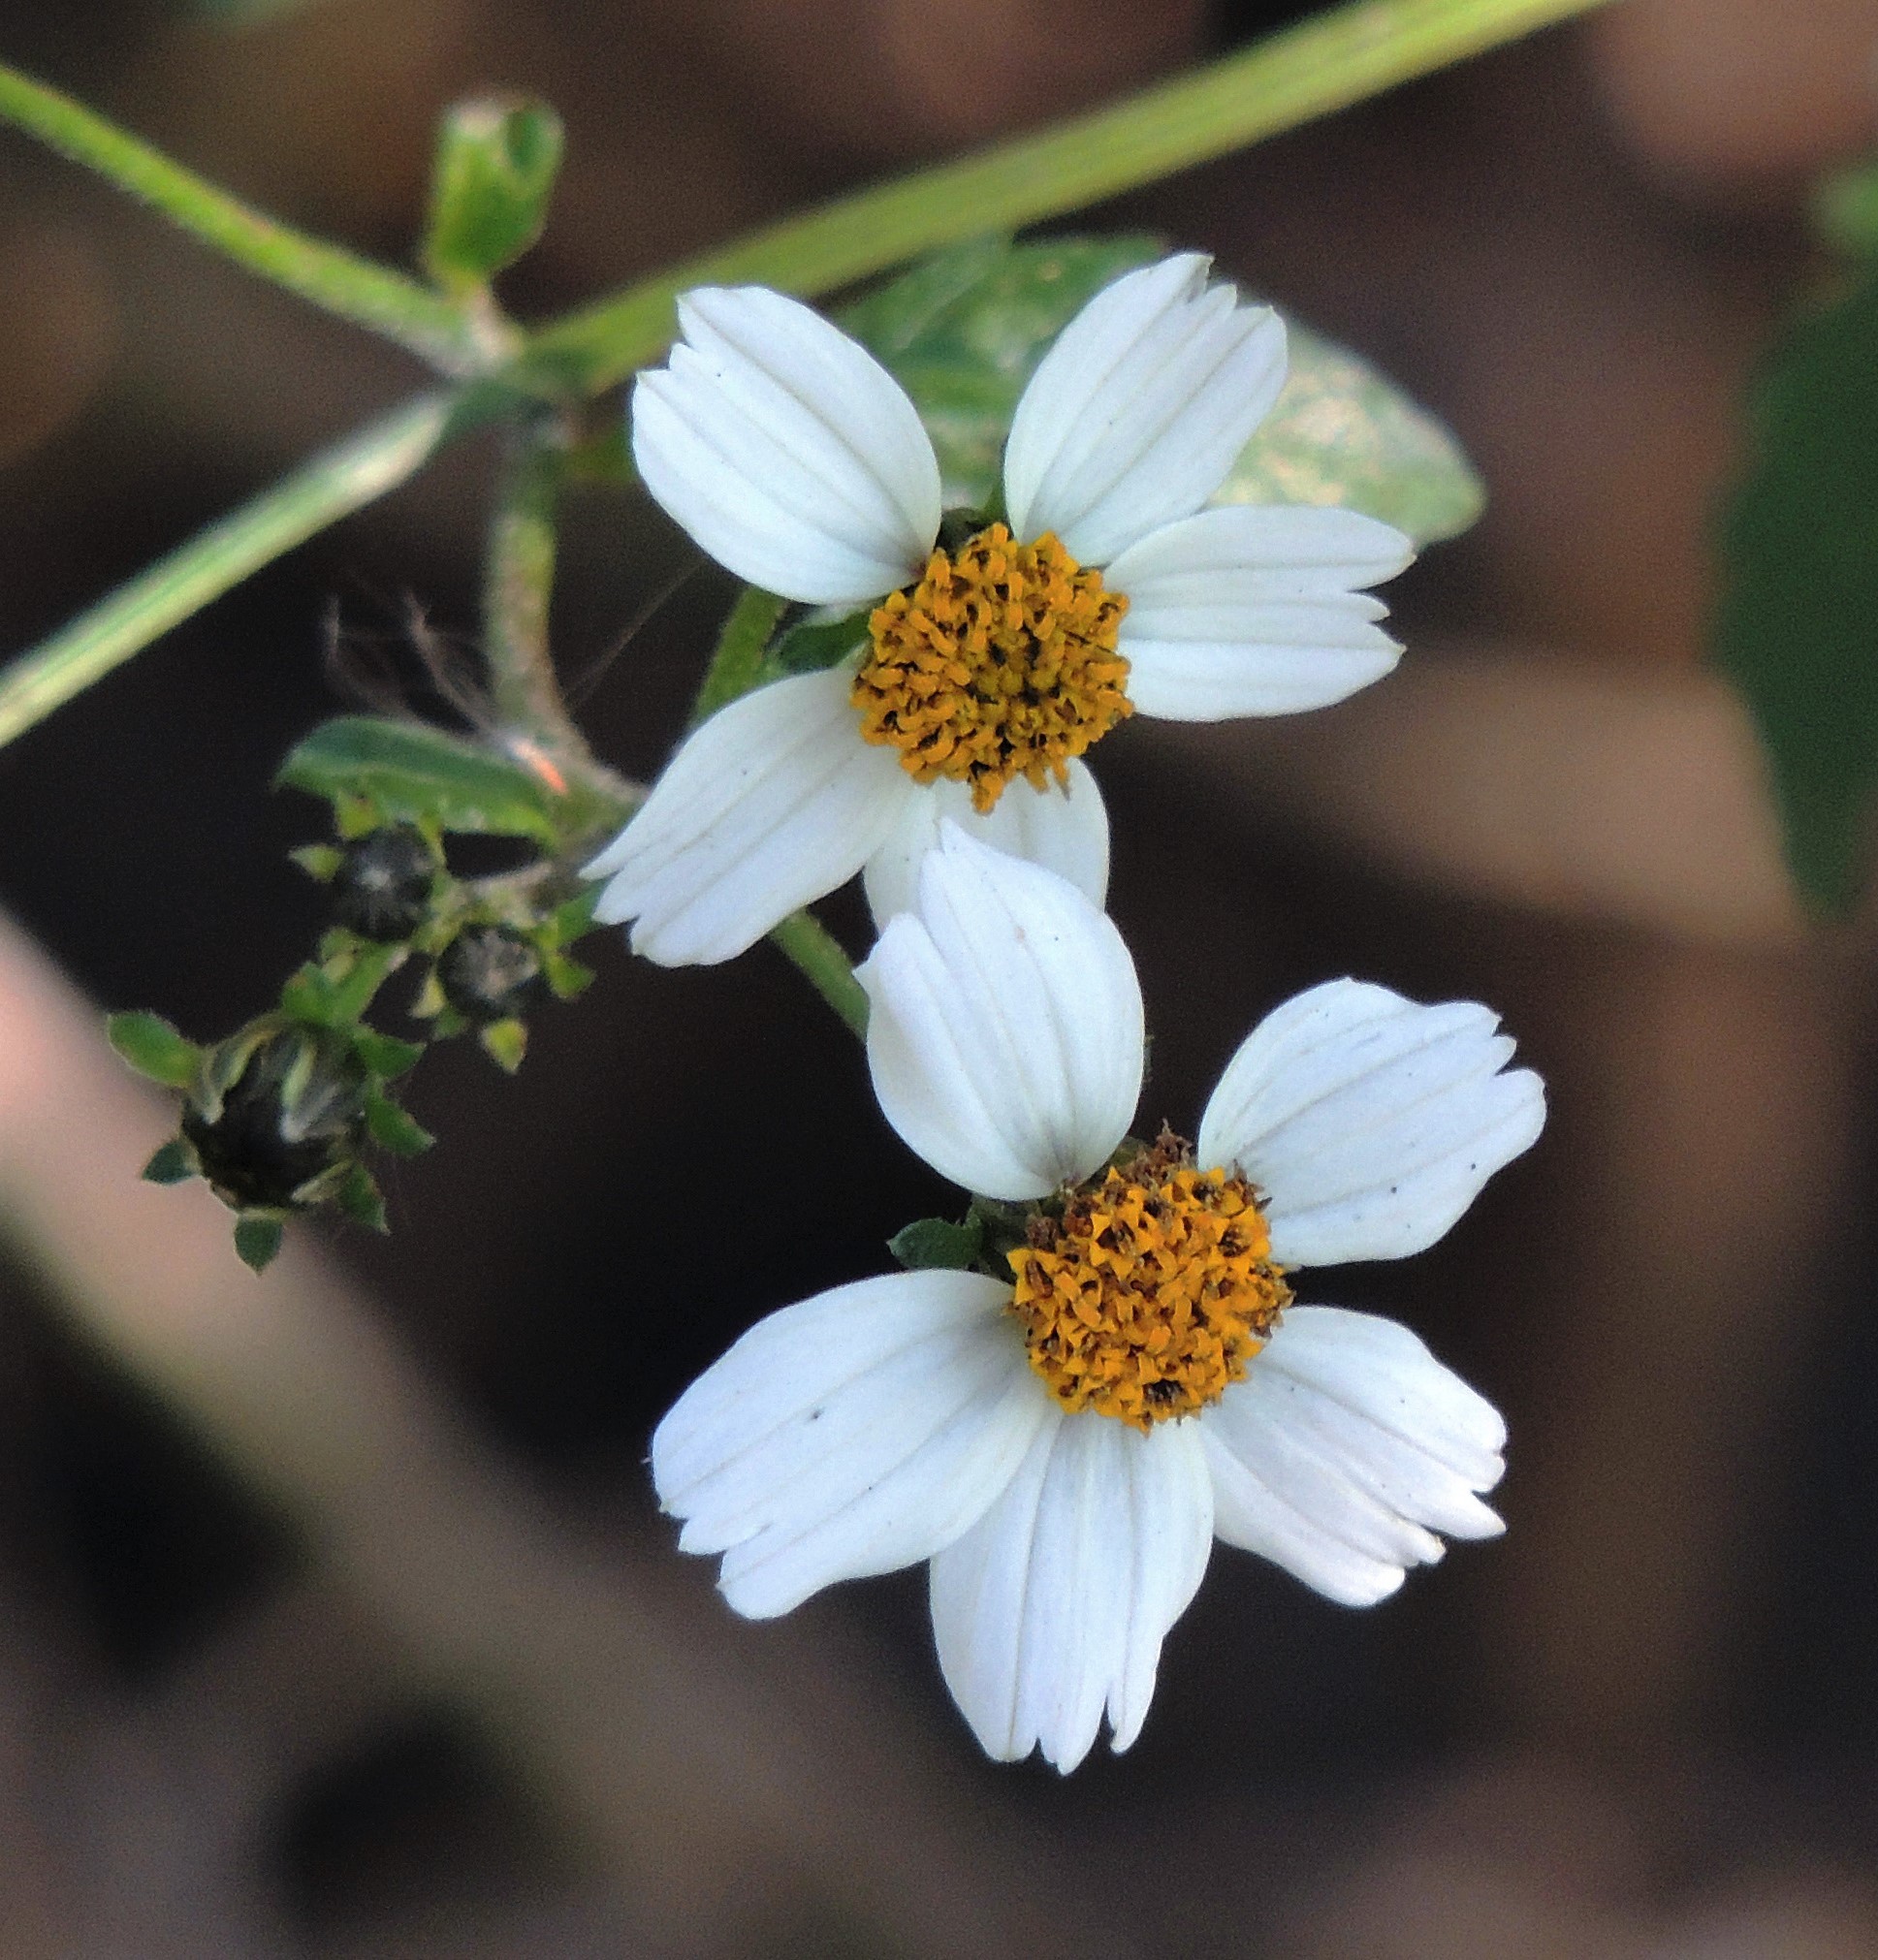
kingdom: Plantae
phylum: Tracheophyta
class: Magnoliopsida
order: Asterales
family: Asteraceae
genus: Bidens
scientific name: Bidens pilosa
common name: Black-jack
